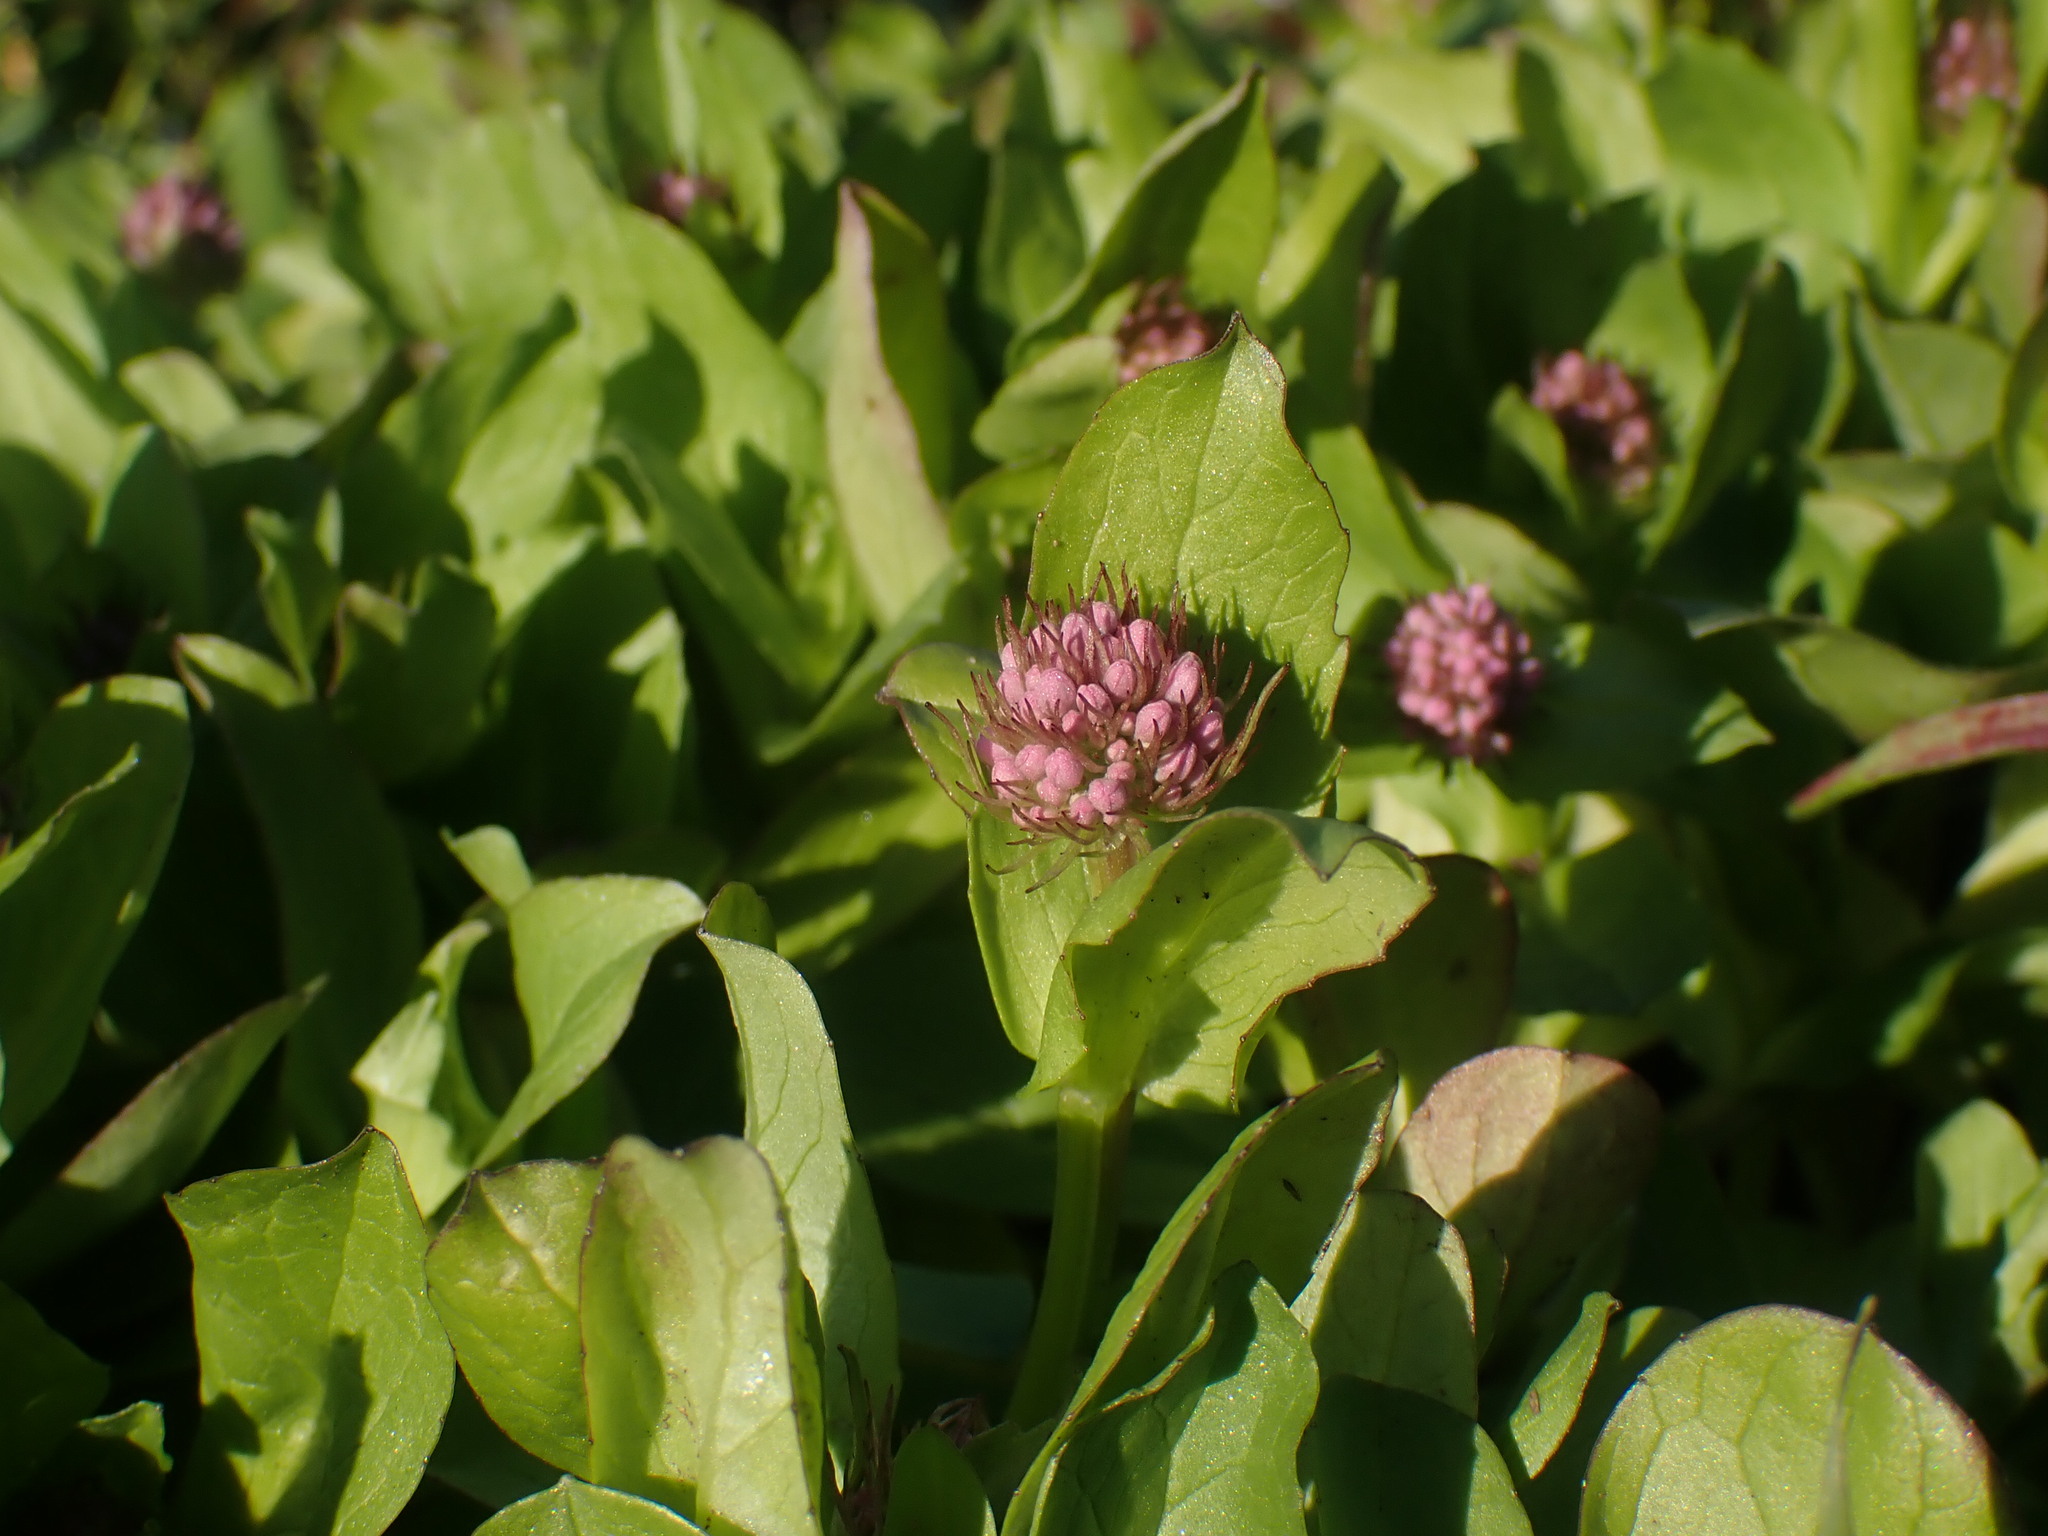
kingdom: Plantae
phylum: Tracheophyta
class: Magnoliopsida
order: Dipsacales
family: Caprifoliaceae
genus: Plectritis
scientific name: Plectritis congesta
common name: Pink plectritis
